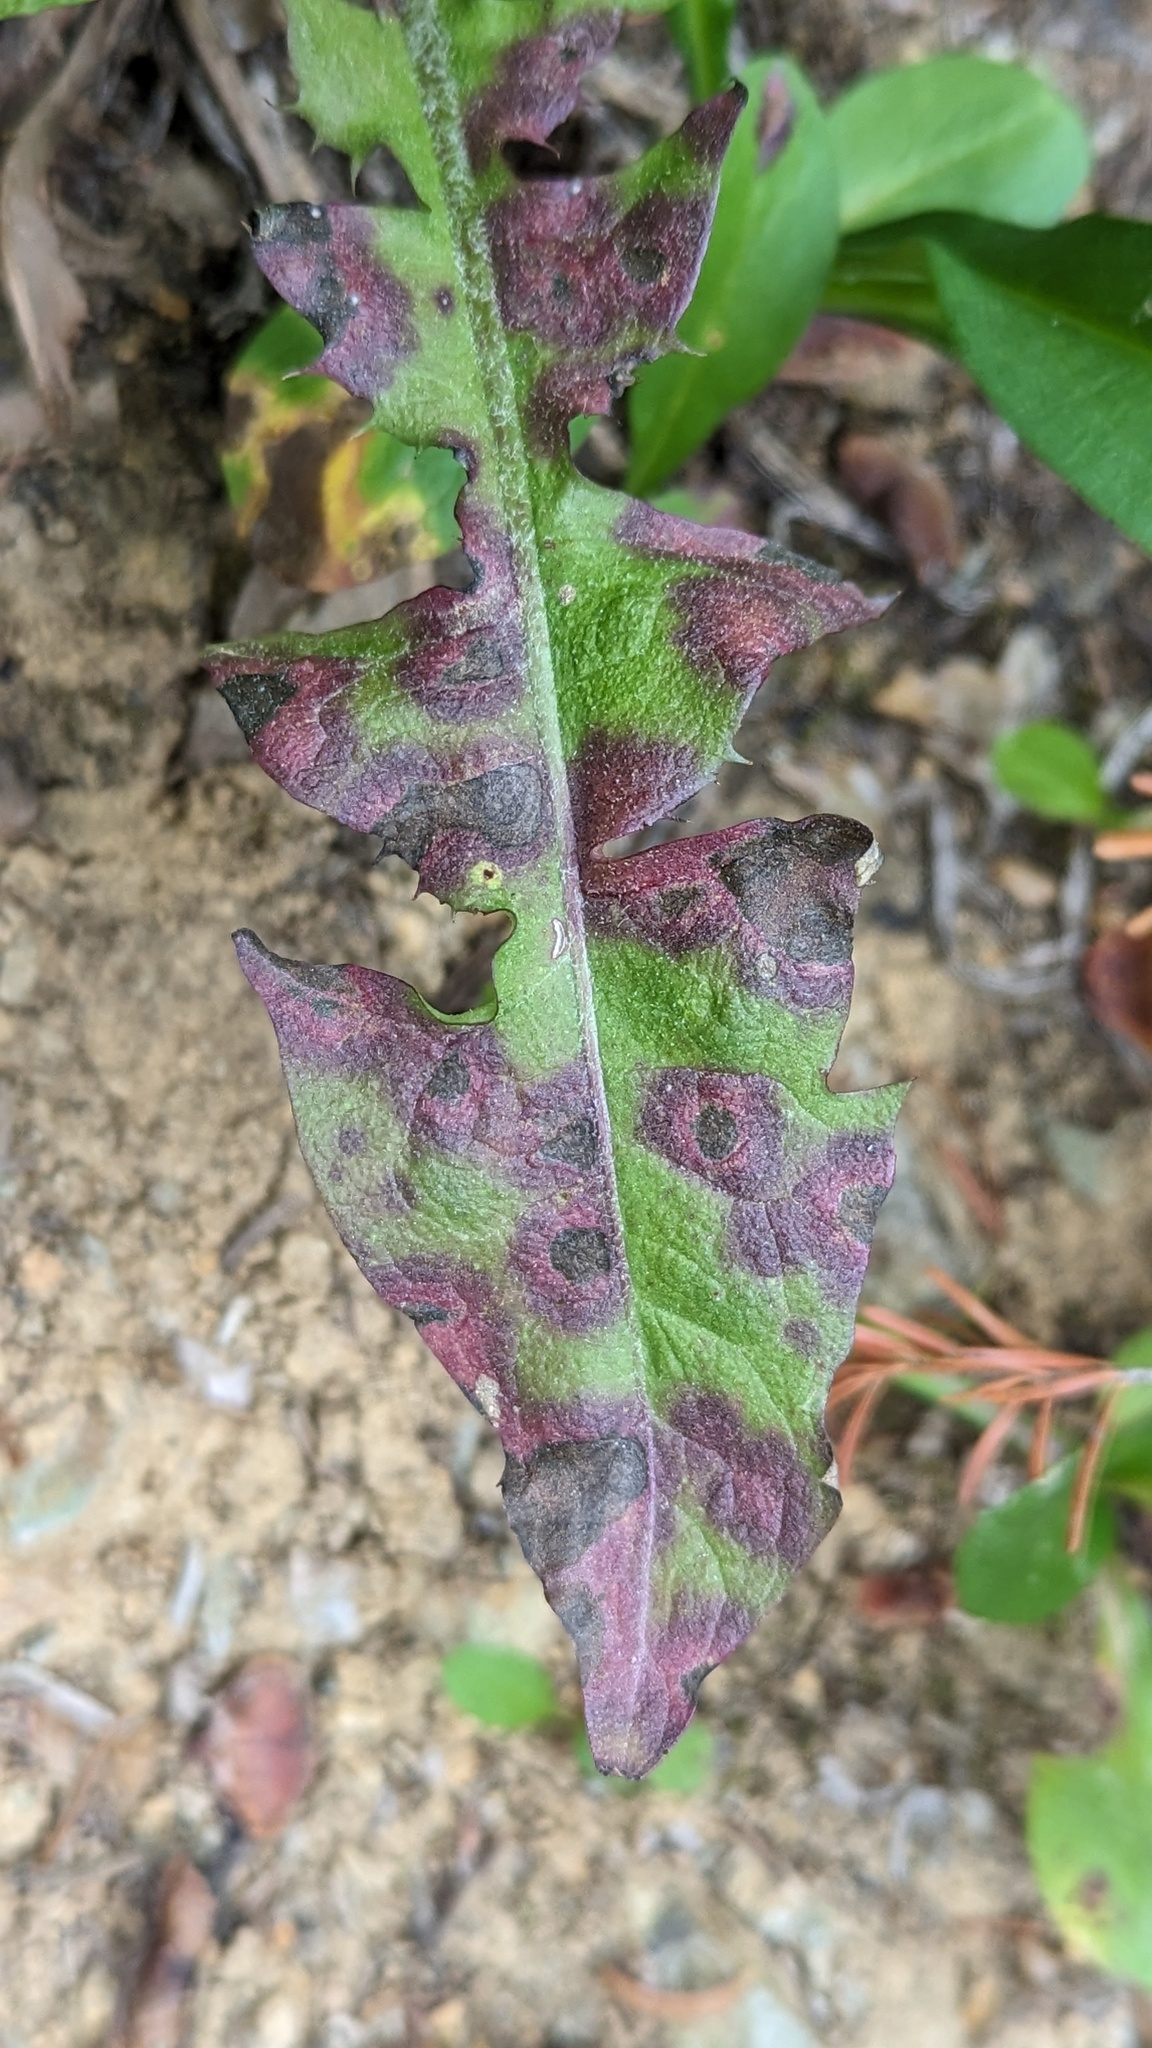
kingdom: Bacteria
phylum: Proteobacteria
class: Gammaproteobacteria
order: Xanthomonadales
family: Xanthomonadaceae
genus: Xanthomonas
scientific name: Xanthomonas
